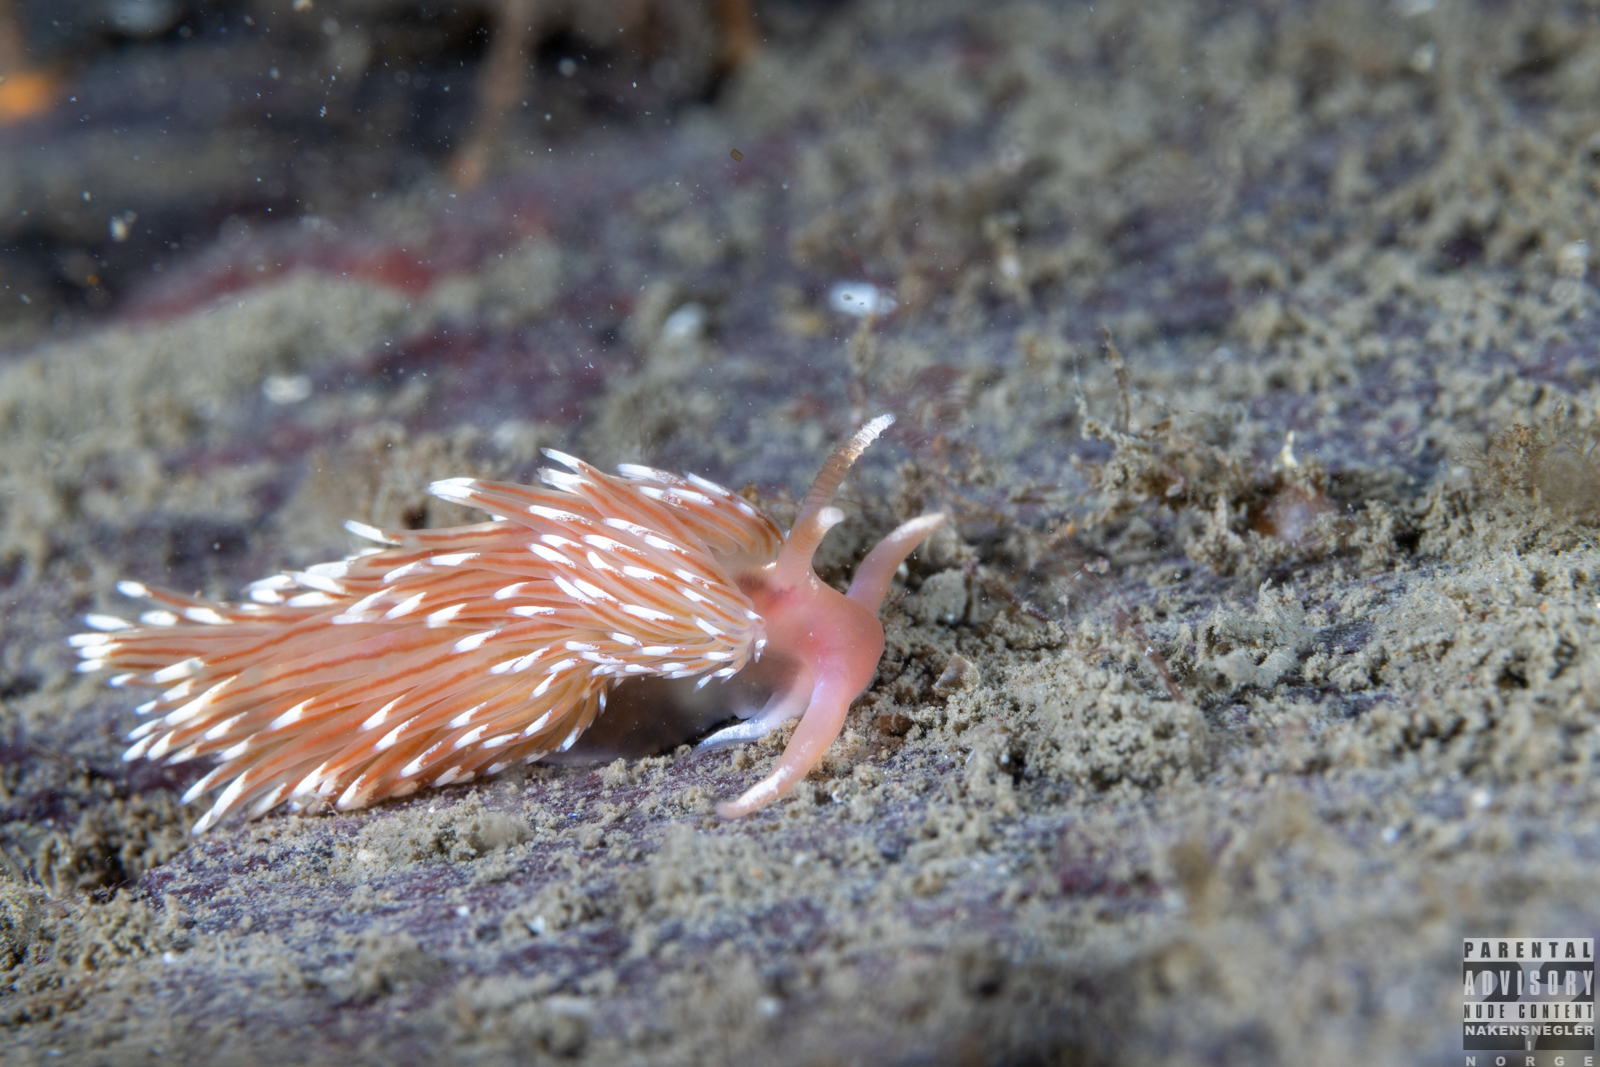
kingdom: Animalia
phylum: Mollusca
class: Gastropoda
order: Nudibranchia
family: Facelinidae
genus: Facelina
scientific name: Facelina bostoniensis
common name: Boston facelina
